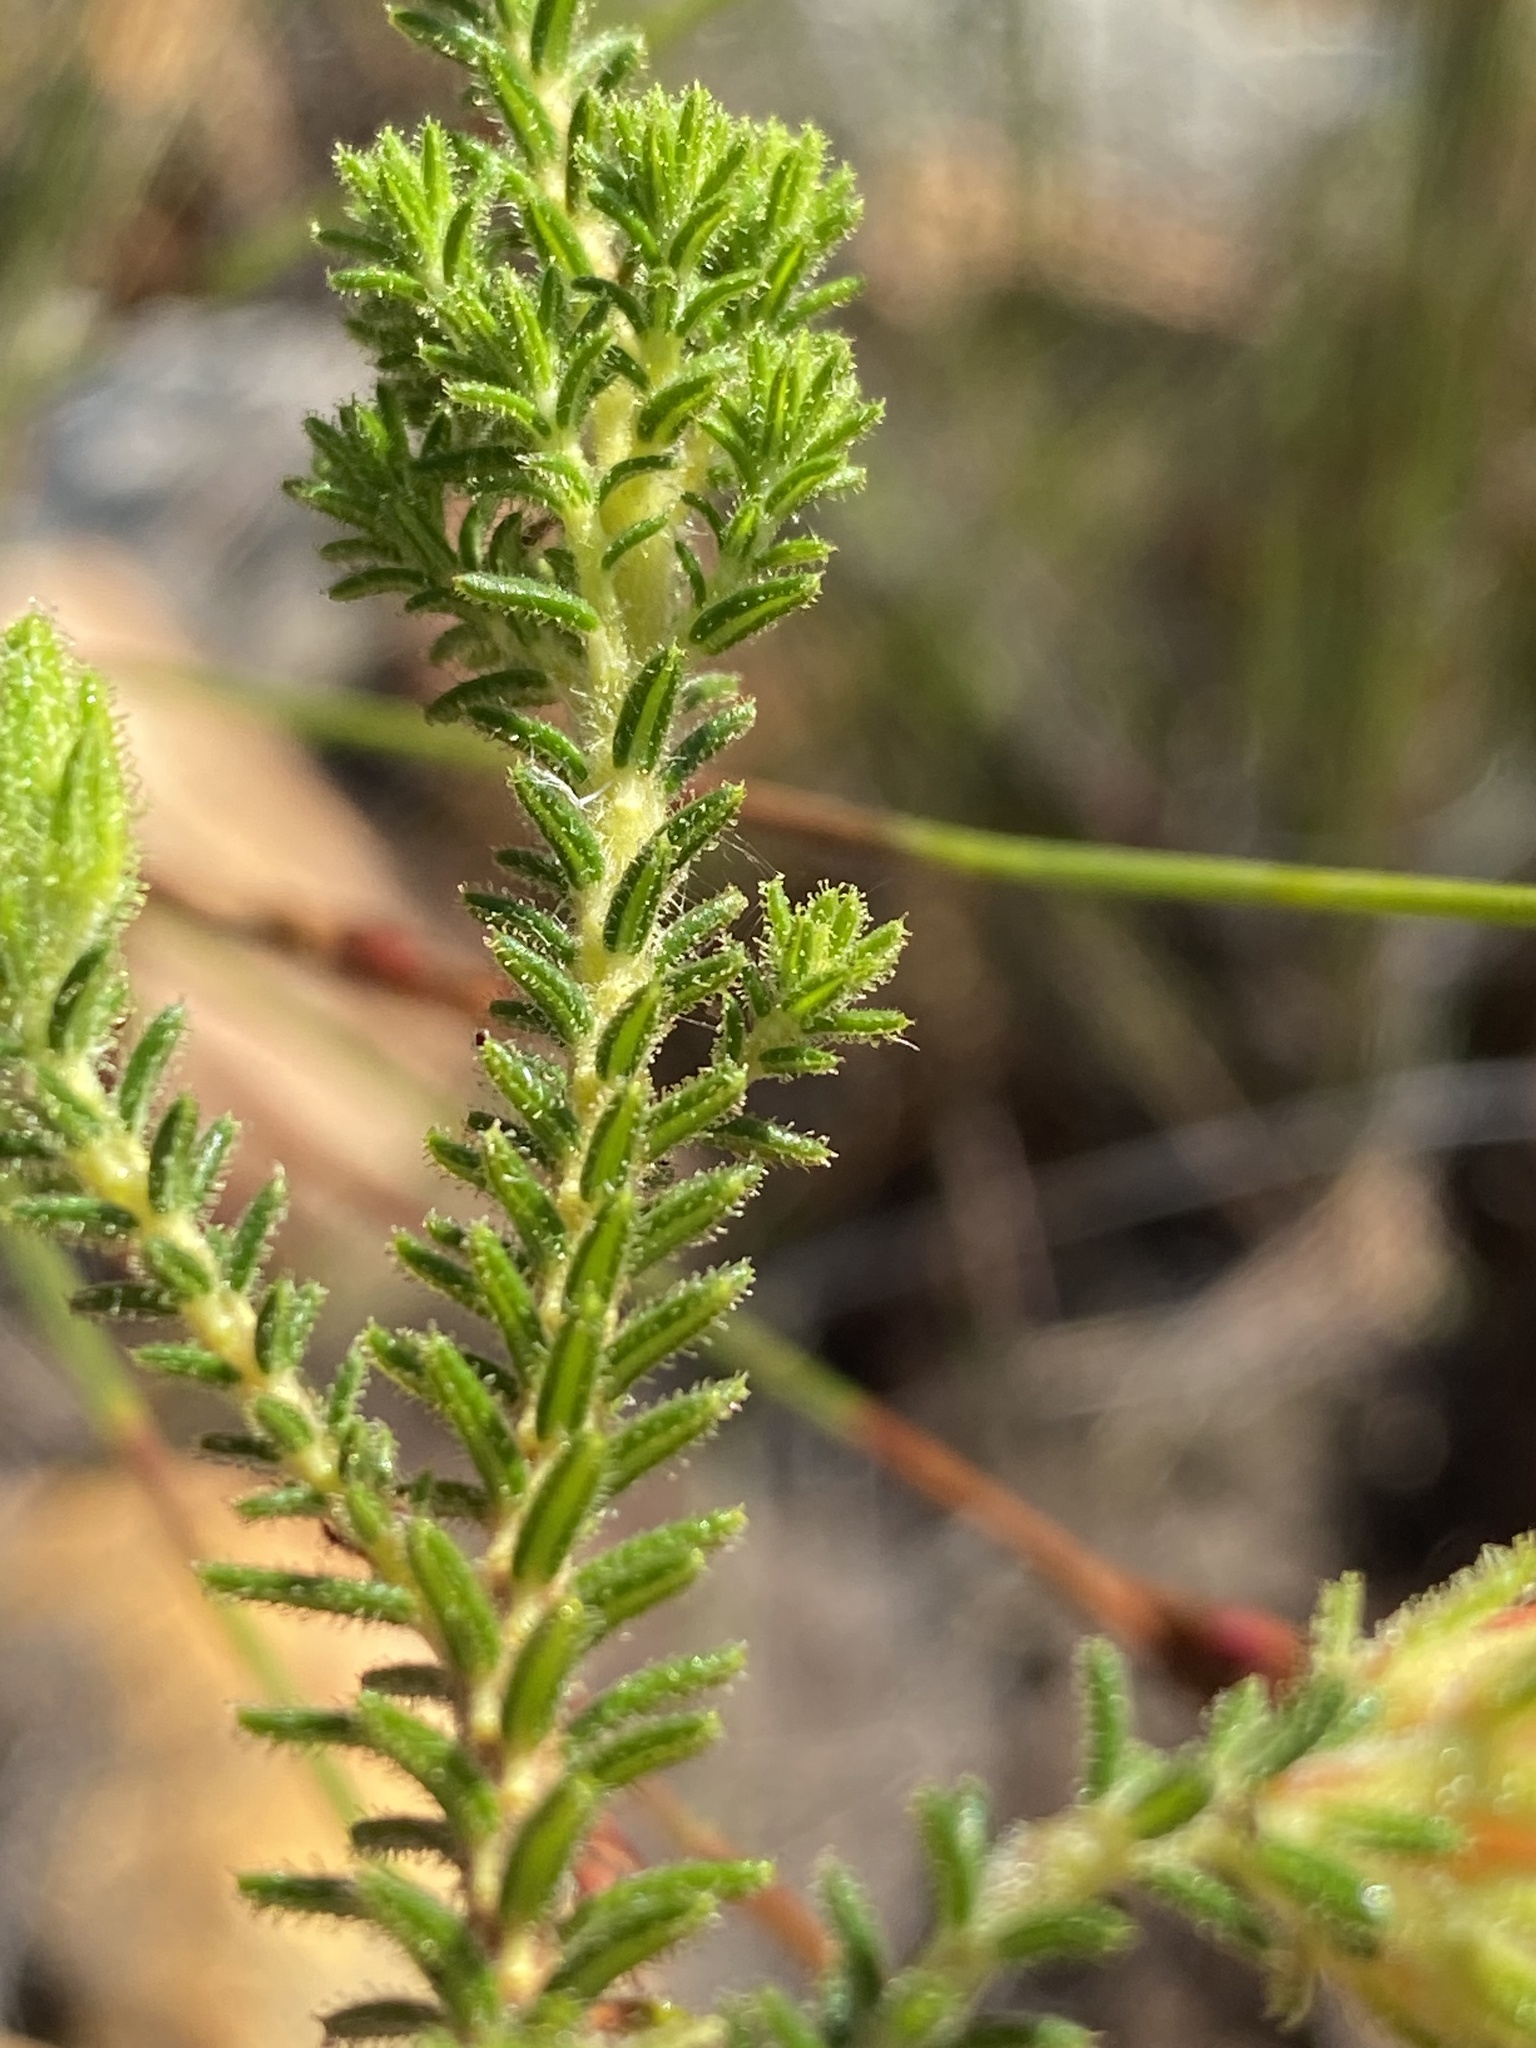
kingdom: Plantae
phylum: Tracheophyta
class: Magnoliopsida
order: Ericales
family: Ericaceae
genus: Erica
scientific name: Erica croceovirens
